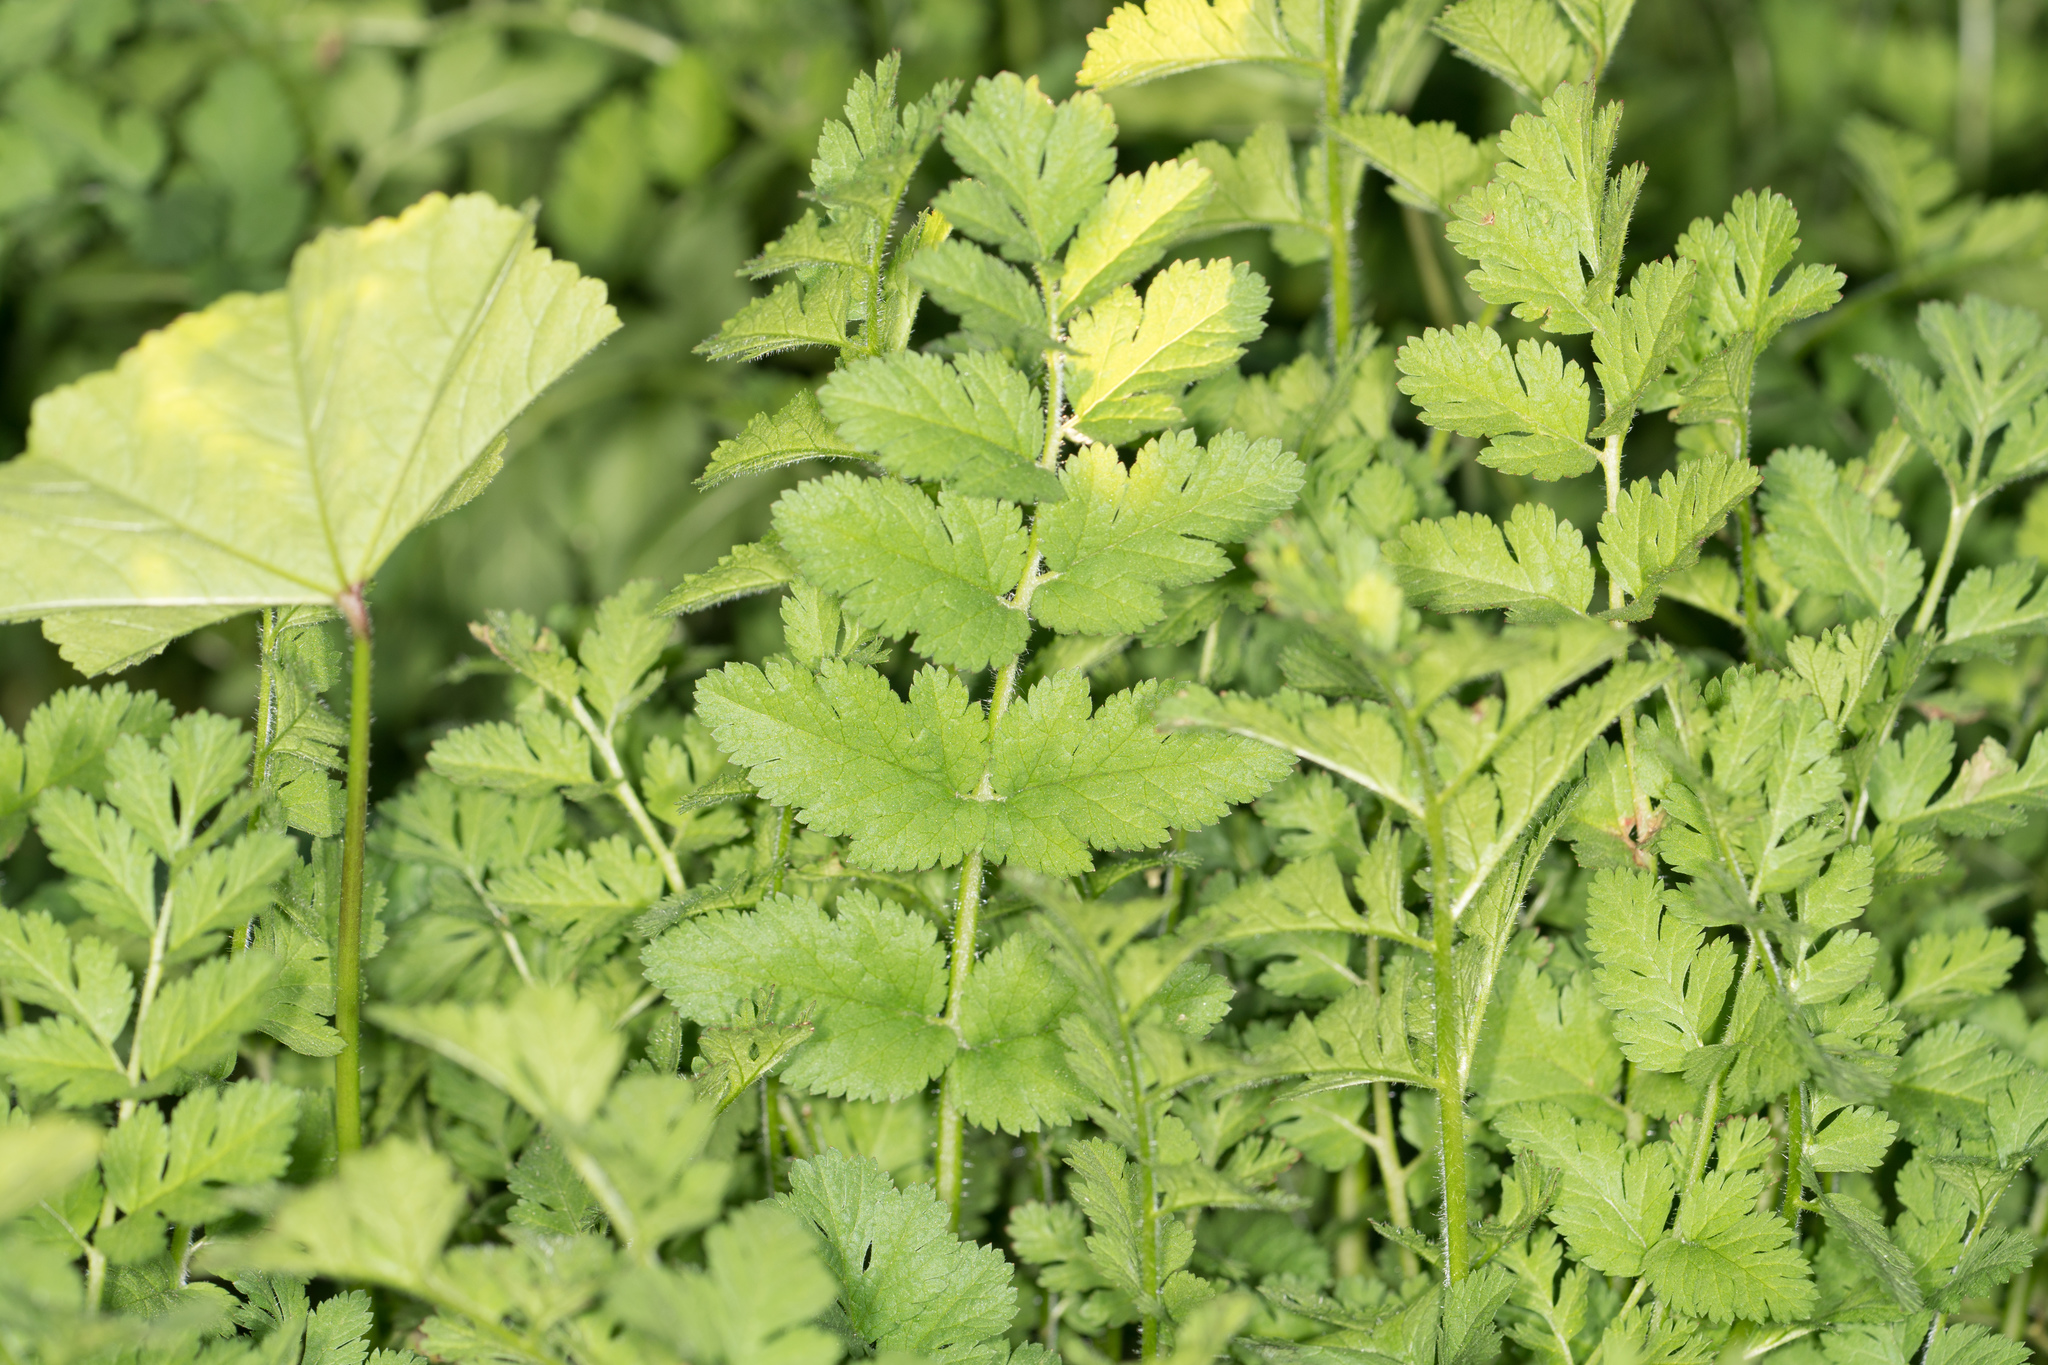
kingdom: Plantae
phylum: Tracheophyta
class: Magnoliopsida
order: Geraniales
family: Geraniaceae
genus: Erodium
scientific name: Erodium moschatum
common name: Musk stork's-bill
